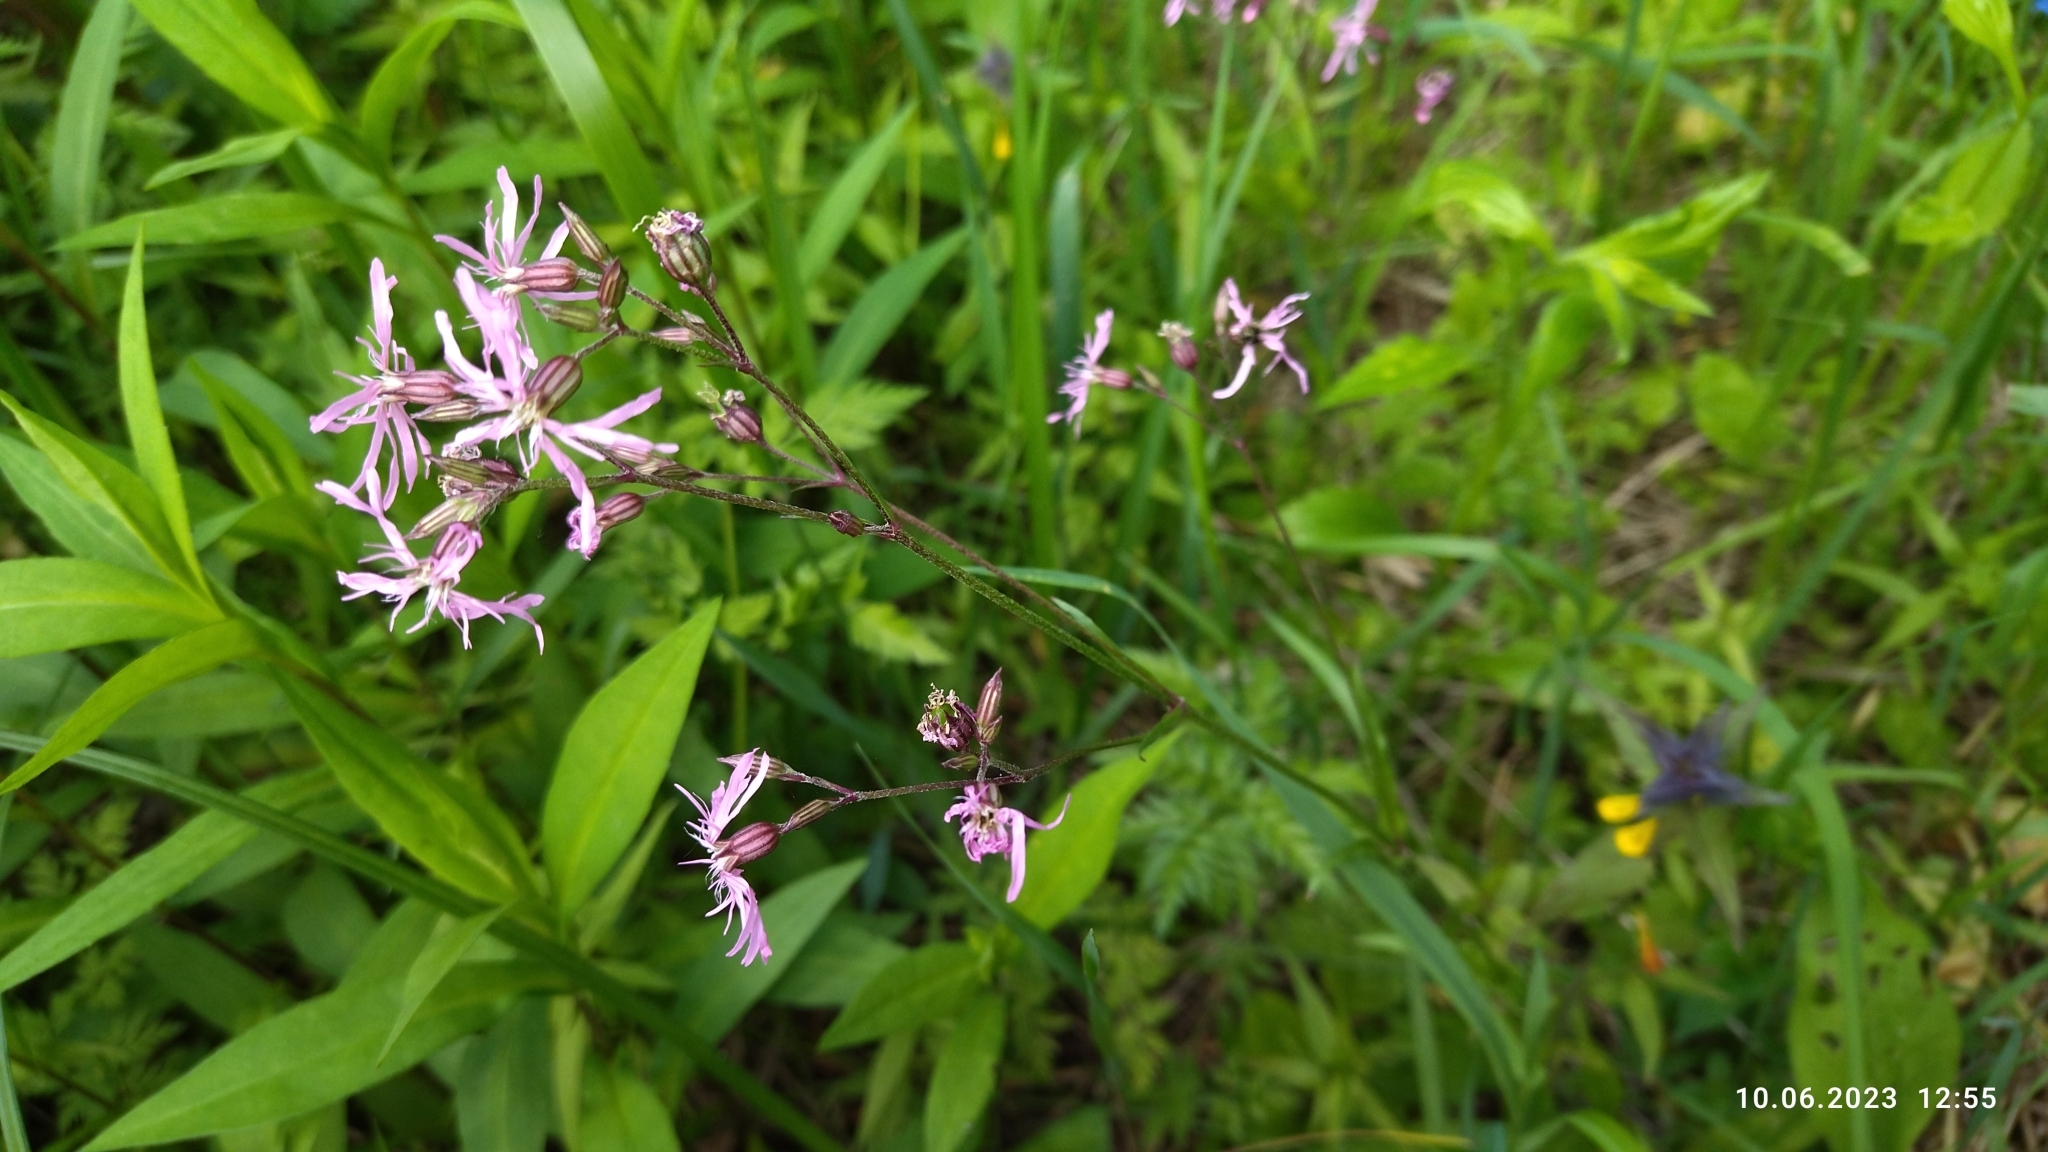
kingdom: Plantae
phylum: Tracheophyta
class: Magnoliopsida
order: Caryophyllales
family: Caryophyllaceae
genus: Silene
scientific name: Silene flos-cuculi
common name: Ragged-robin
